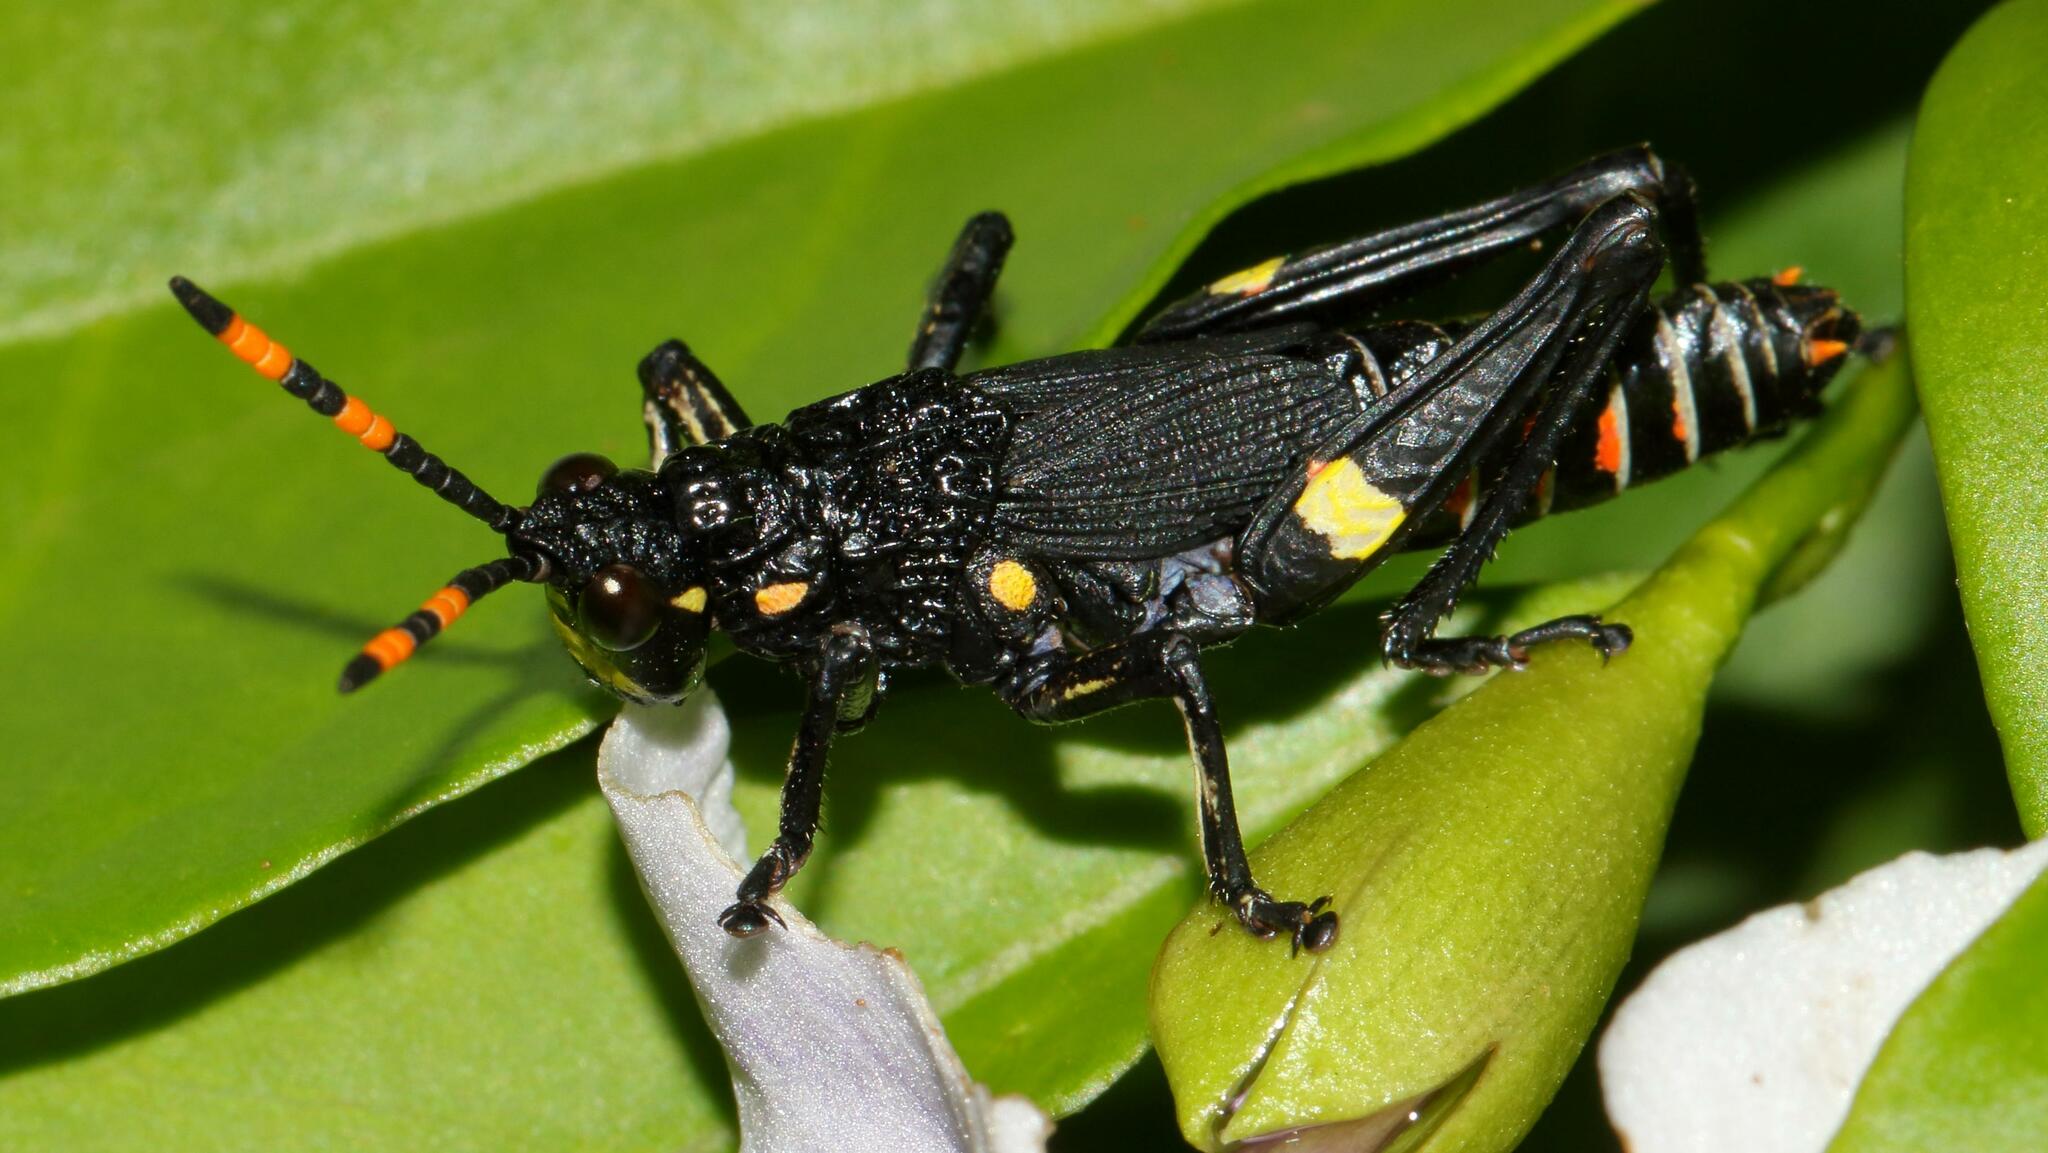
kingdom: Animalia
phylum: Arthropoda
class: Insecta
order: Orthoptera
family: Pyrgomorphidae
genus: Maura
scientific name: Maura rubroornata
